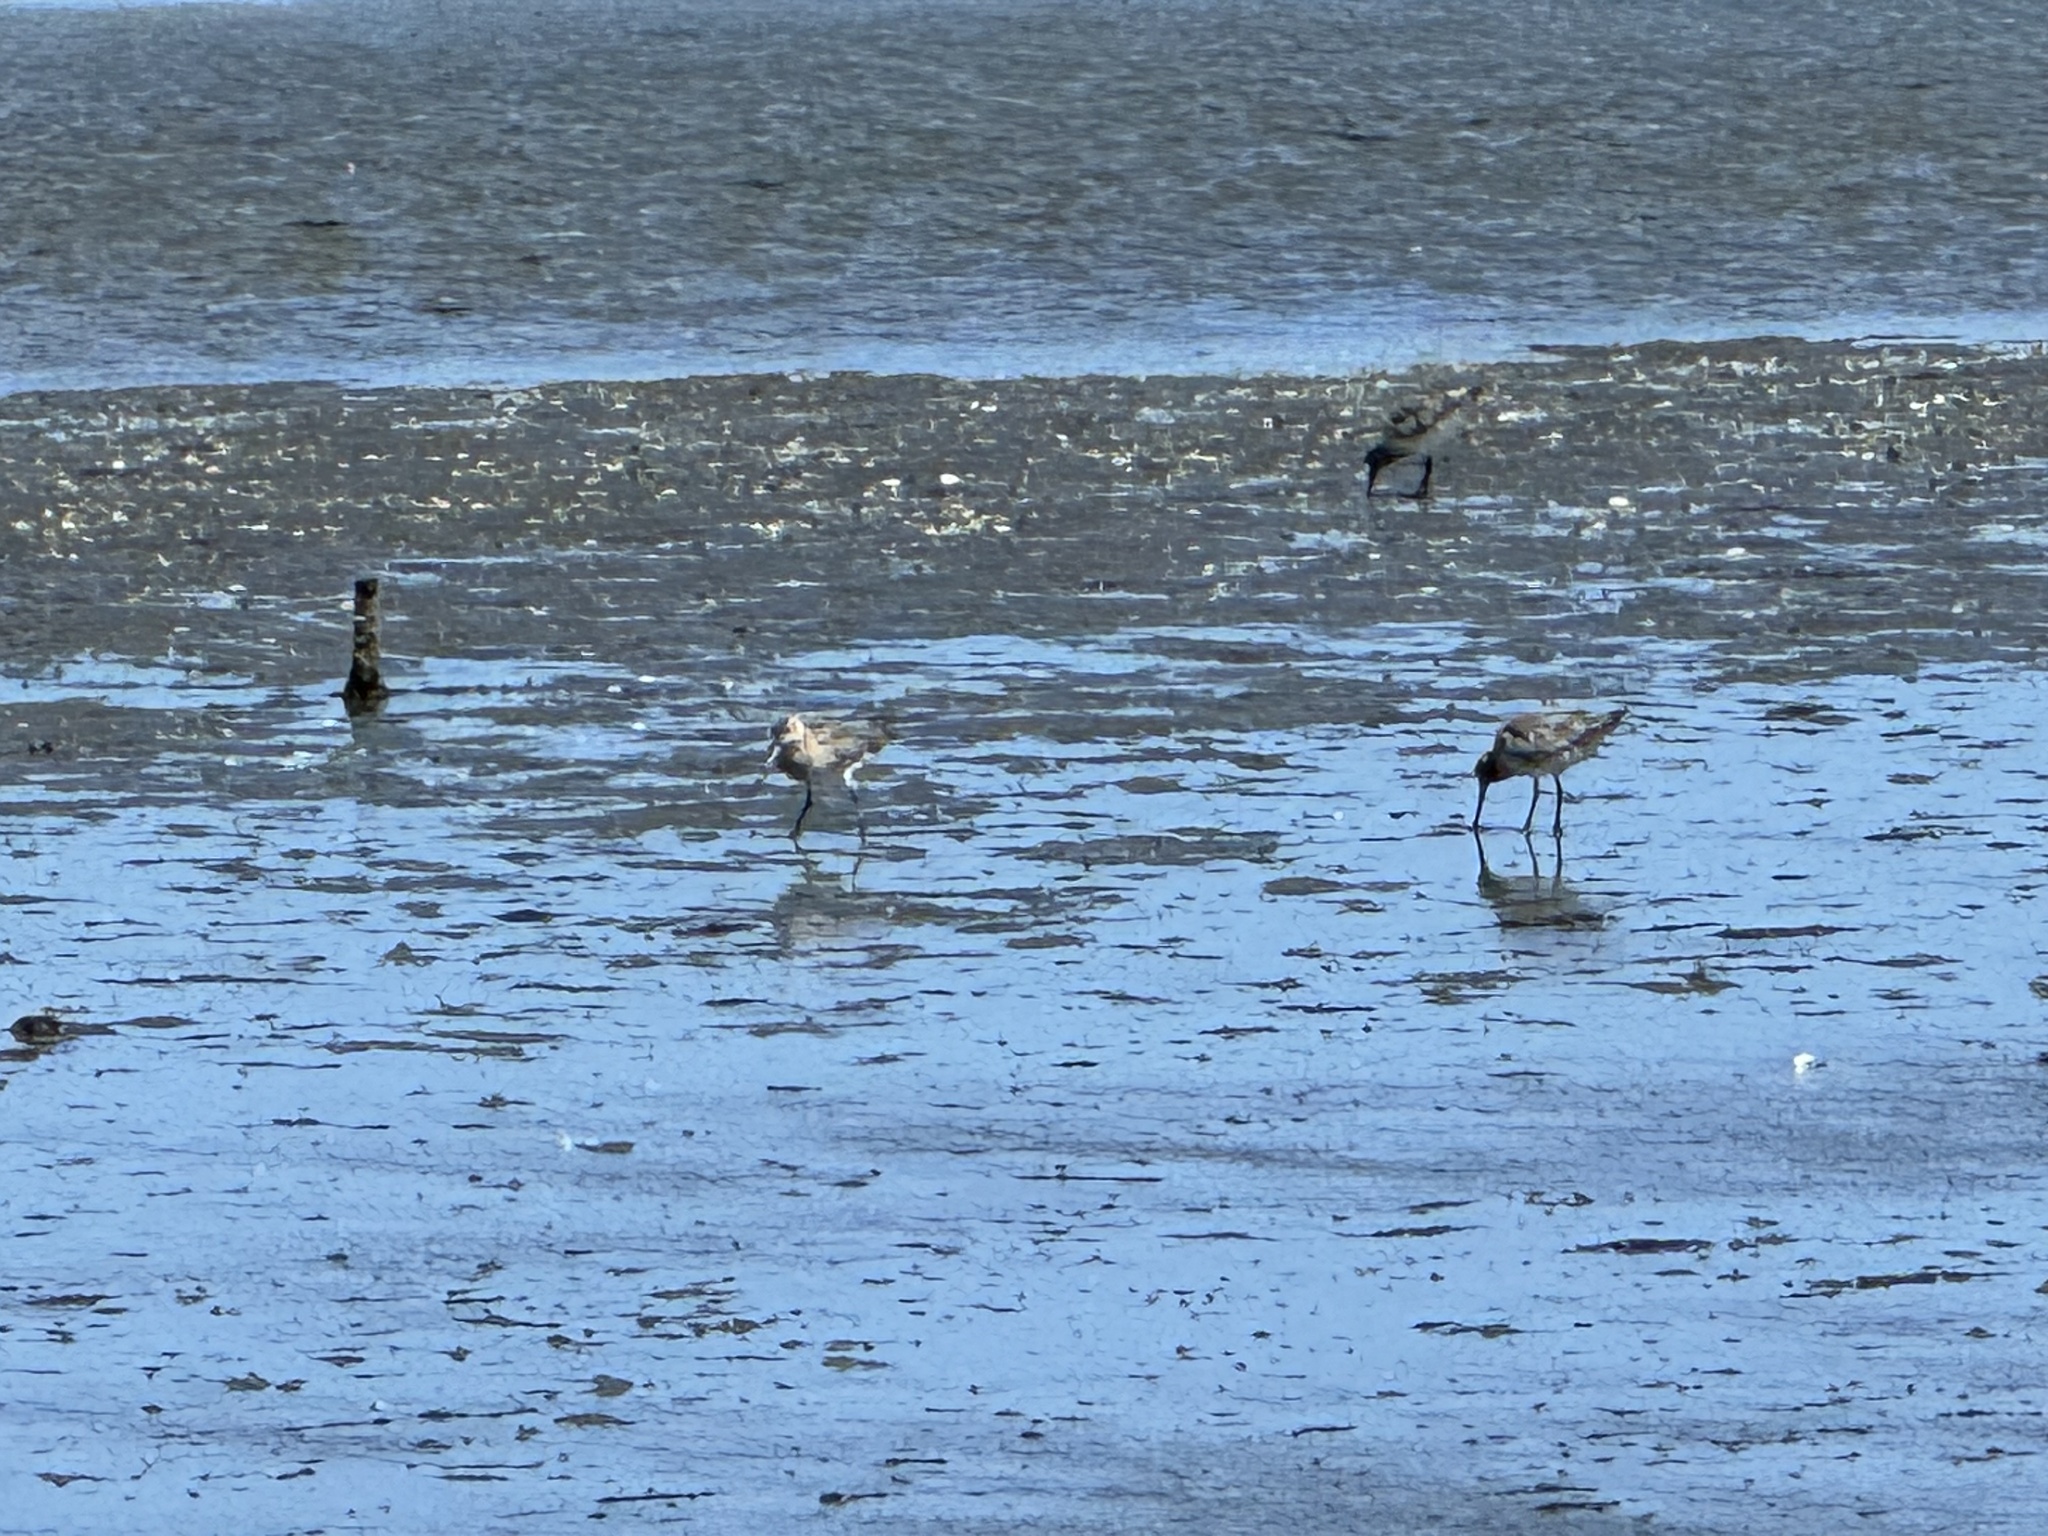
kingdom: Animalia
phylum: Chordata
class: Aves
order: Charadriiformes
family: Scolopacidae
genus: Limosa
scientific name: Limosa lapponica
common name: Bar-tailed godwit
